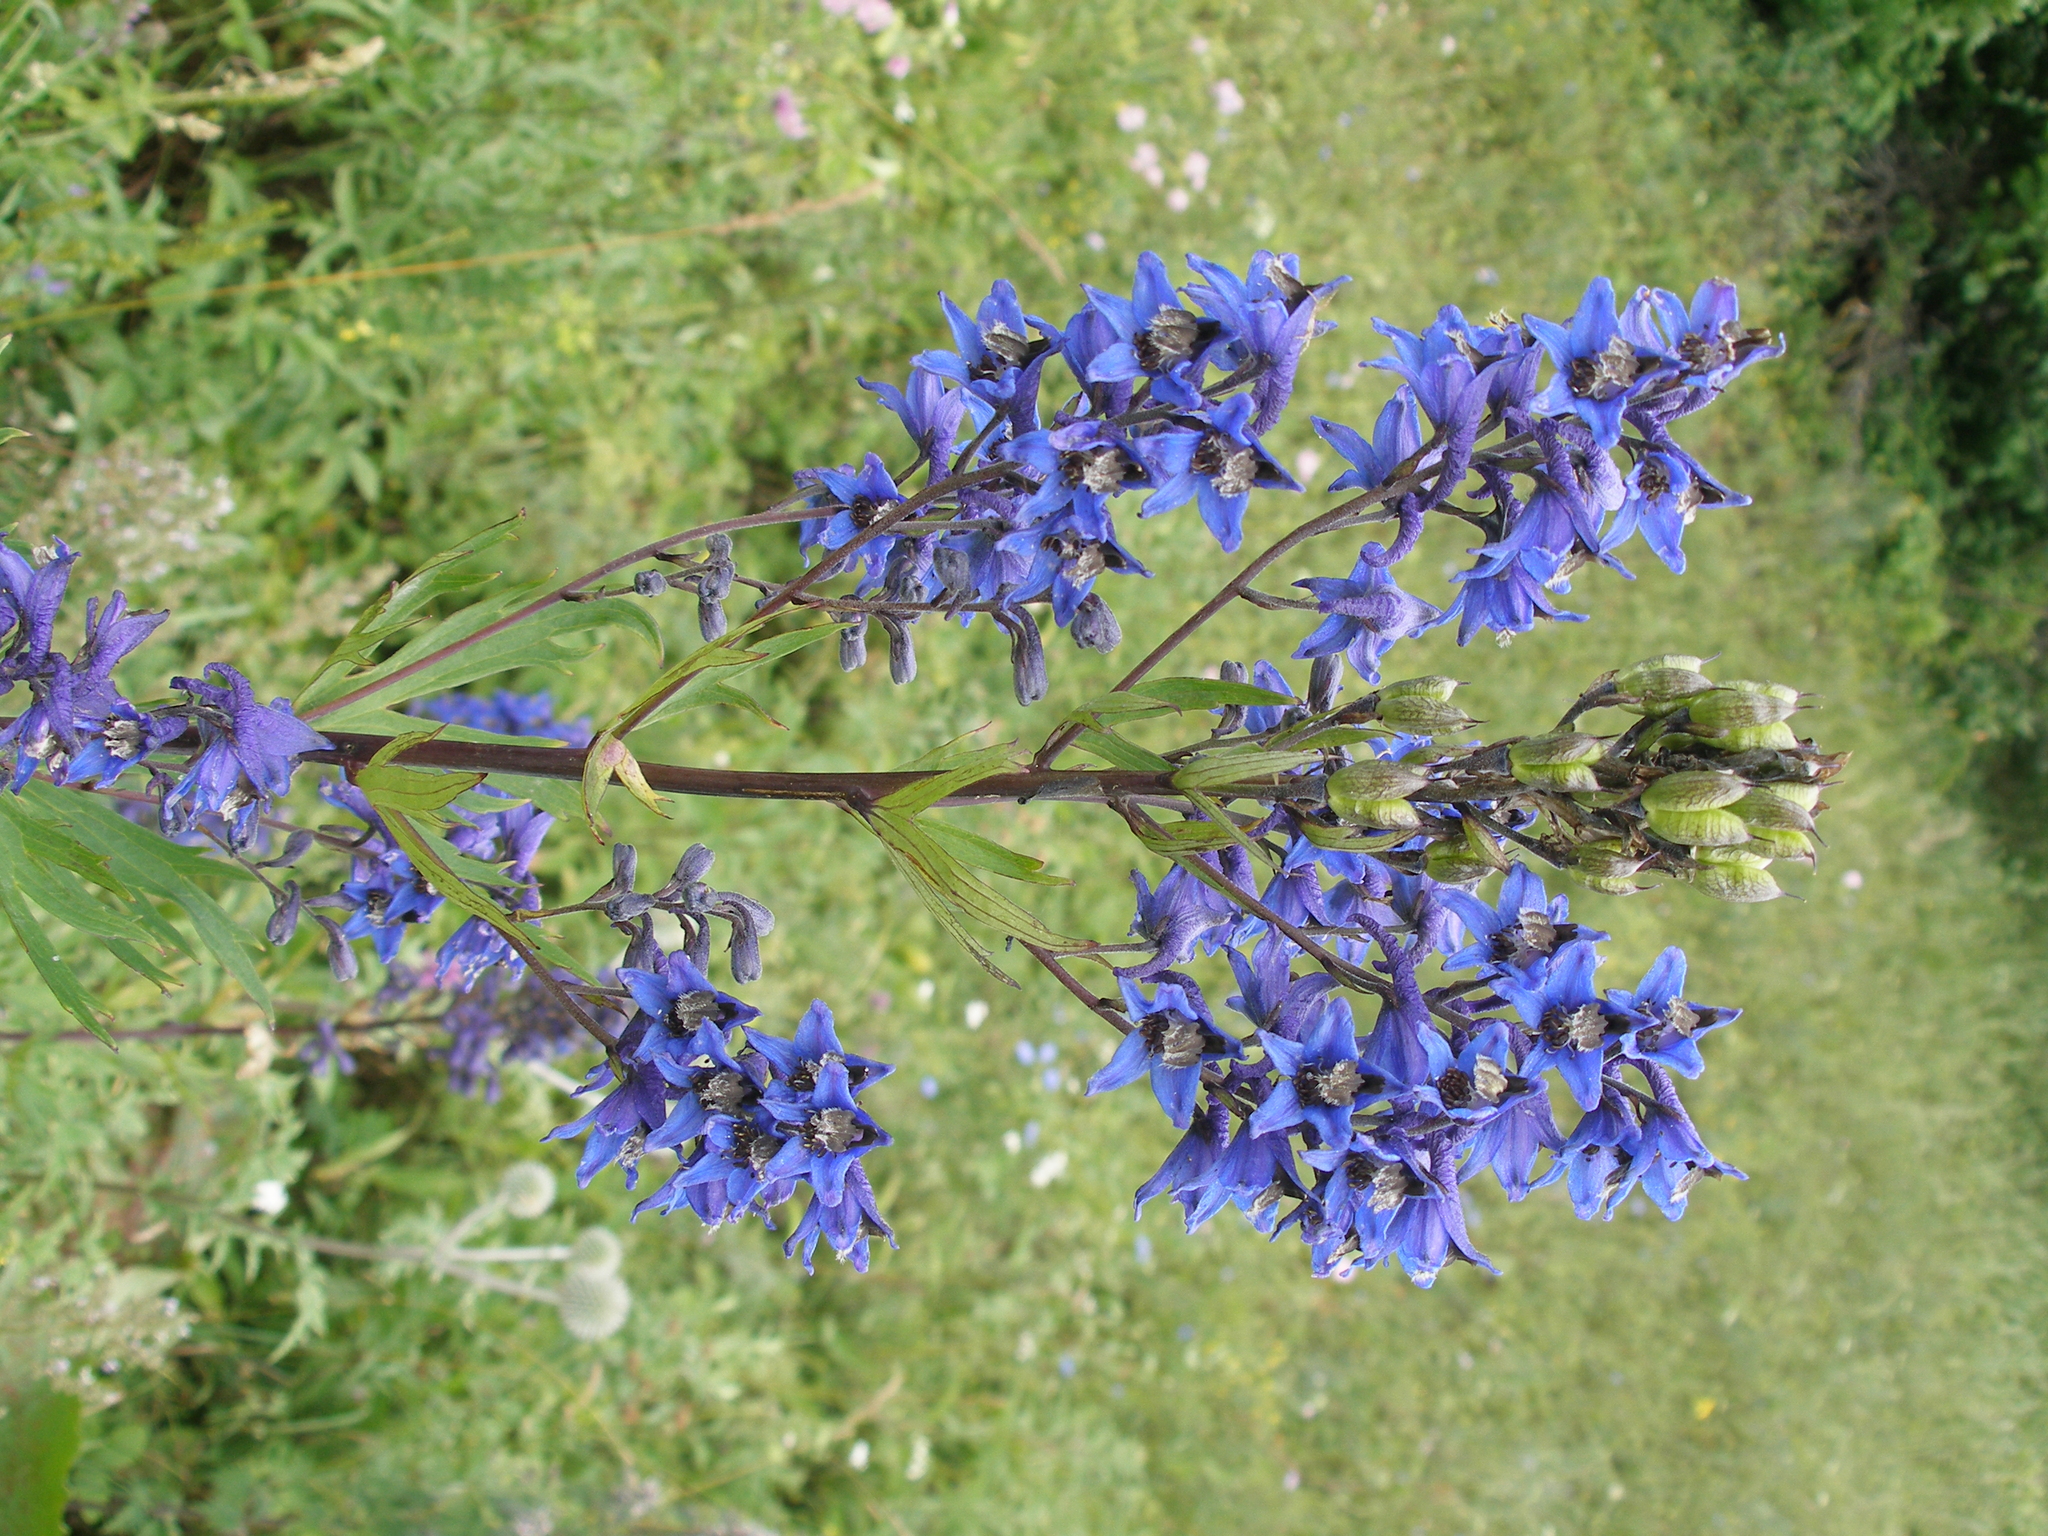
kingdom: Plantae
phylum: Tracheophyta
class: Magnoliopsida
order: Ranunculales
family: Ranunculaceae
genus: Delphinium
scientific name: Delphinium cuneatum
